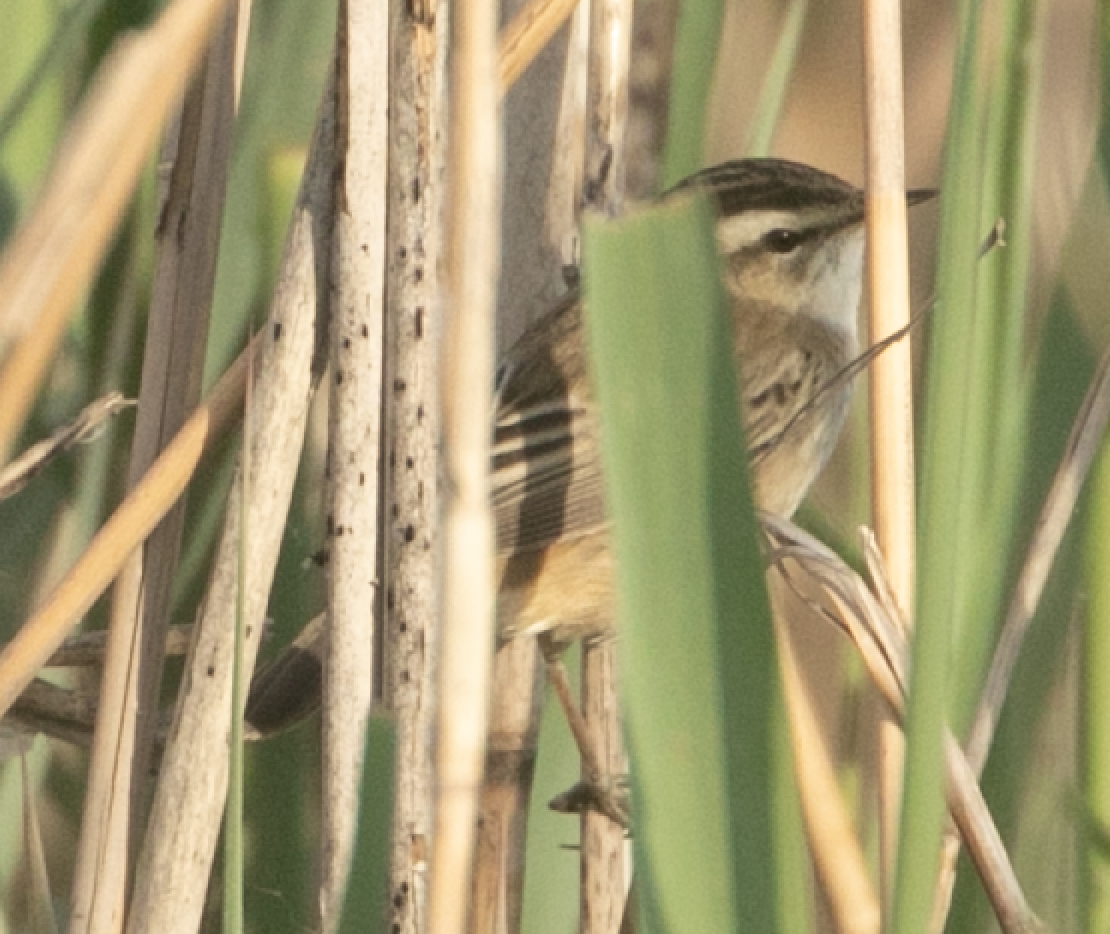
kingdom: Animalia
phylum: Chordata
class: Aves
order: Passeriformes
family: Acrocephalidae
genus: Acrocephalus
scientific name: Acrocephalus schoenobaenus
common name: Sedge warbler
